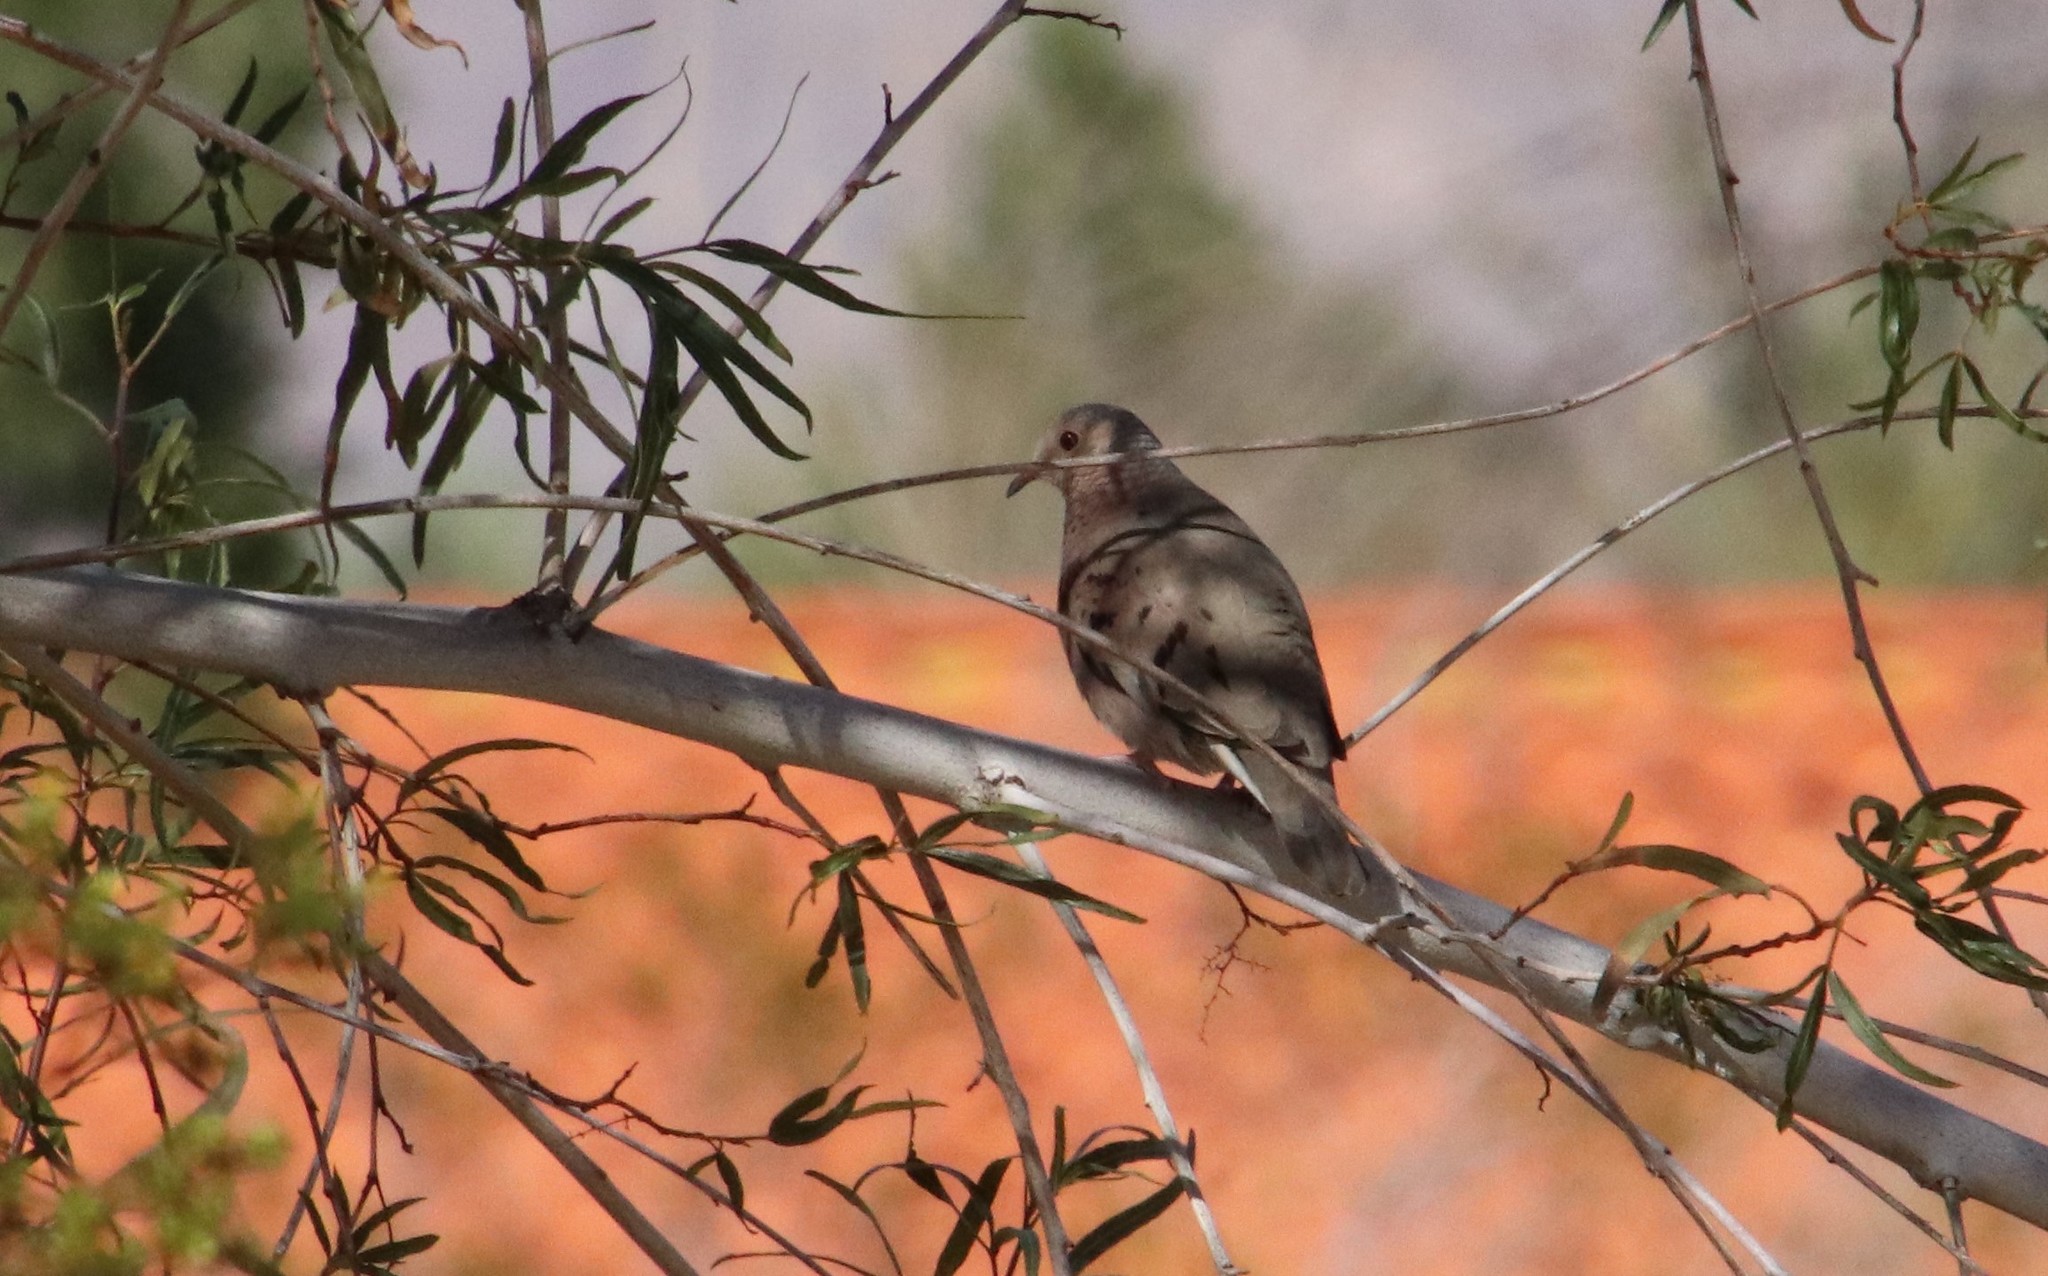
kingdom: Animalia
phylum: Chordata
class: Aves
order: Columbiformes
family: Columbidae
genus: Columbina
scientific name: Columbina passerina
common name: Common ground-dove
